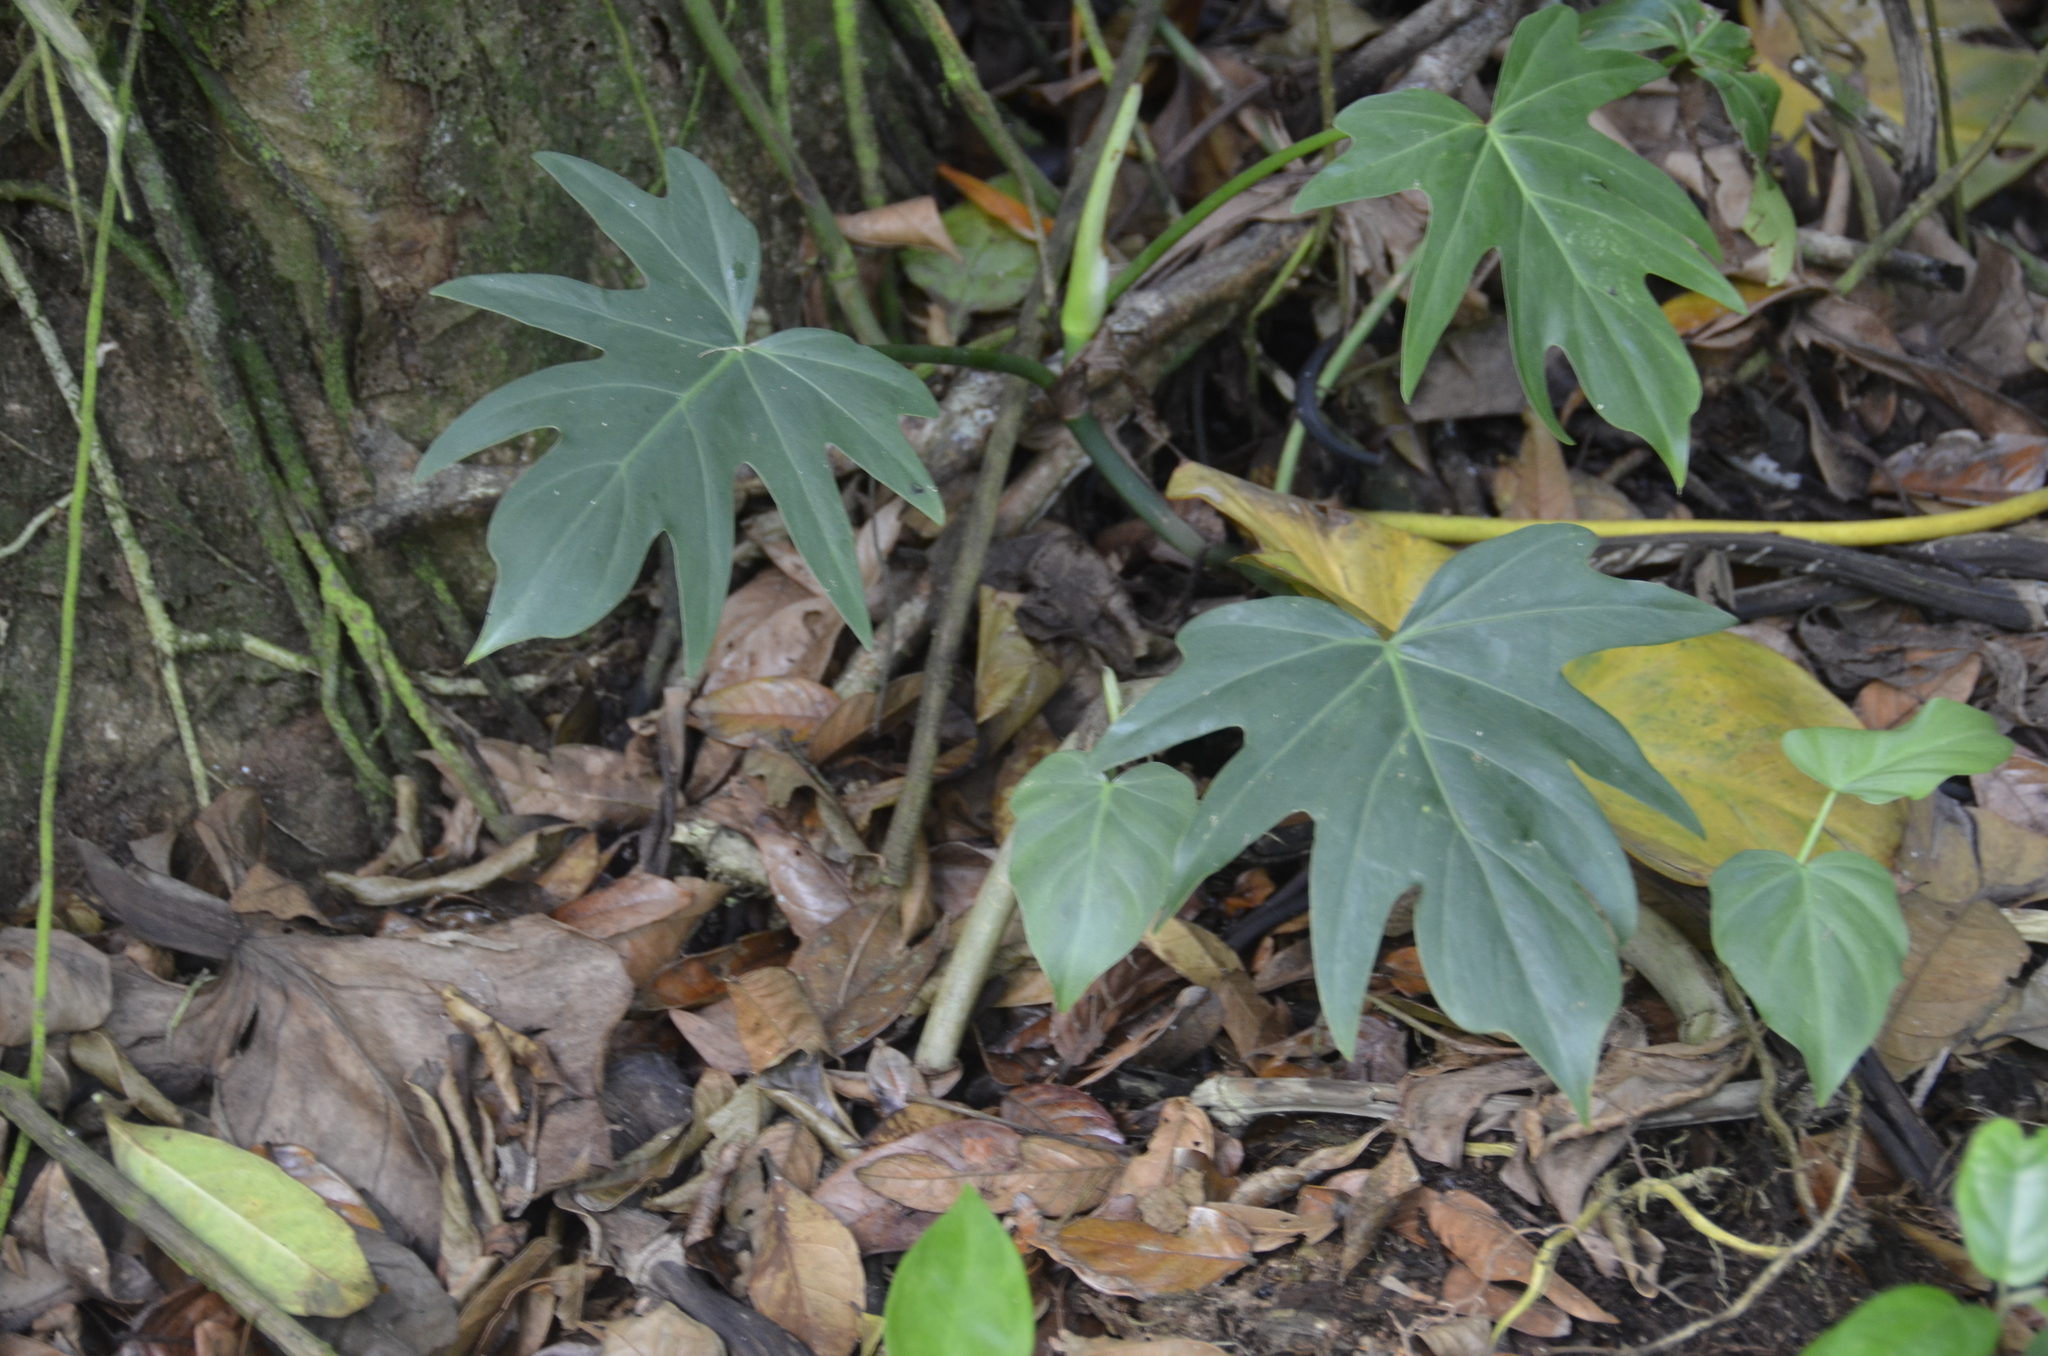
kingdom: Plantae
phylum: Tracheophyta
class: Liliopsida
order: Alismatales
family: Araceae
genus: Philodendron
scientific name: Philodendron radiatum
